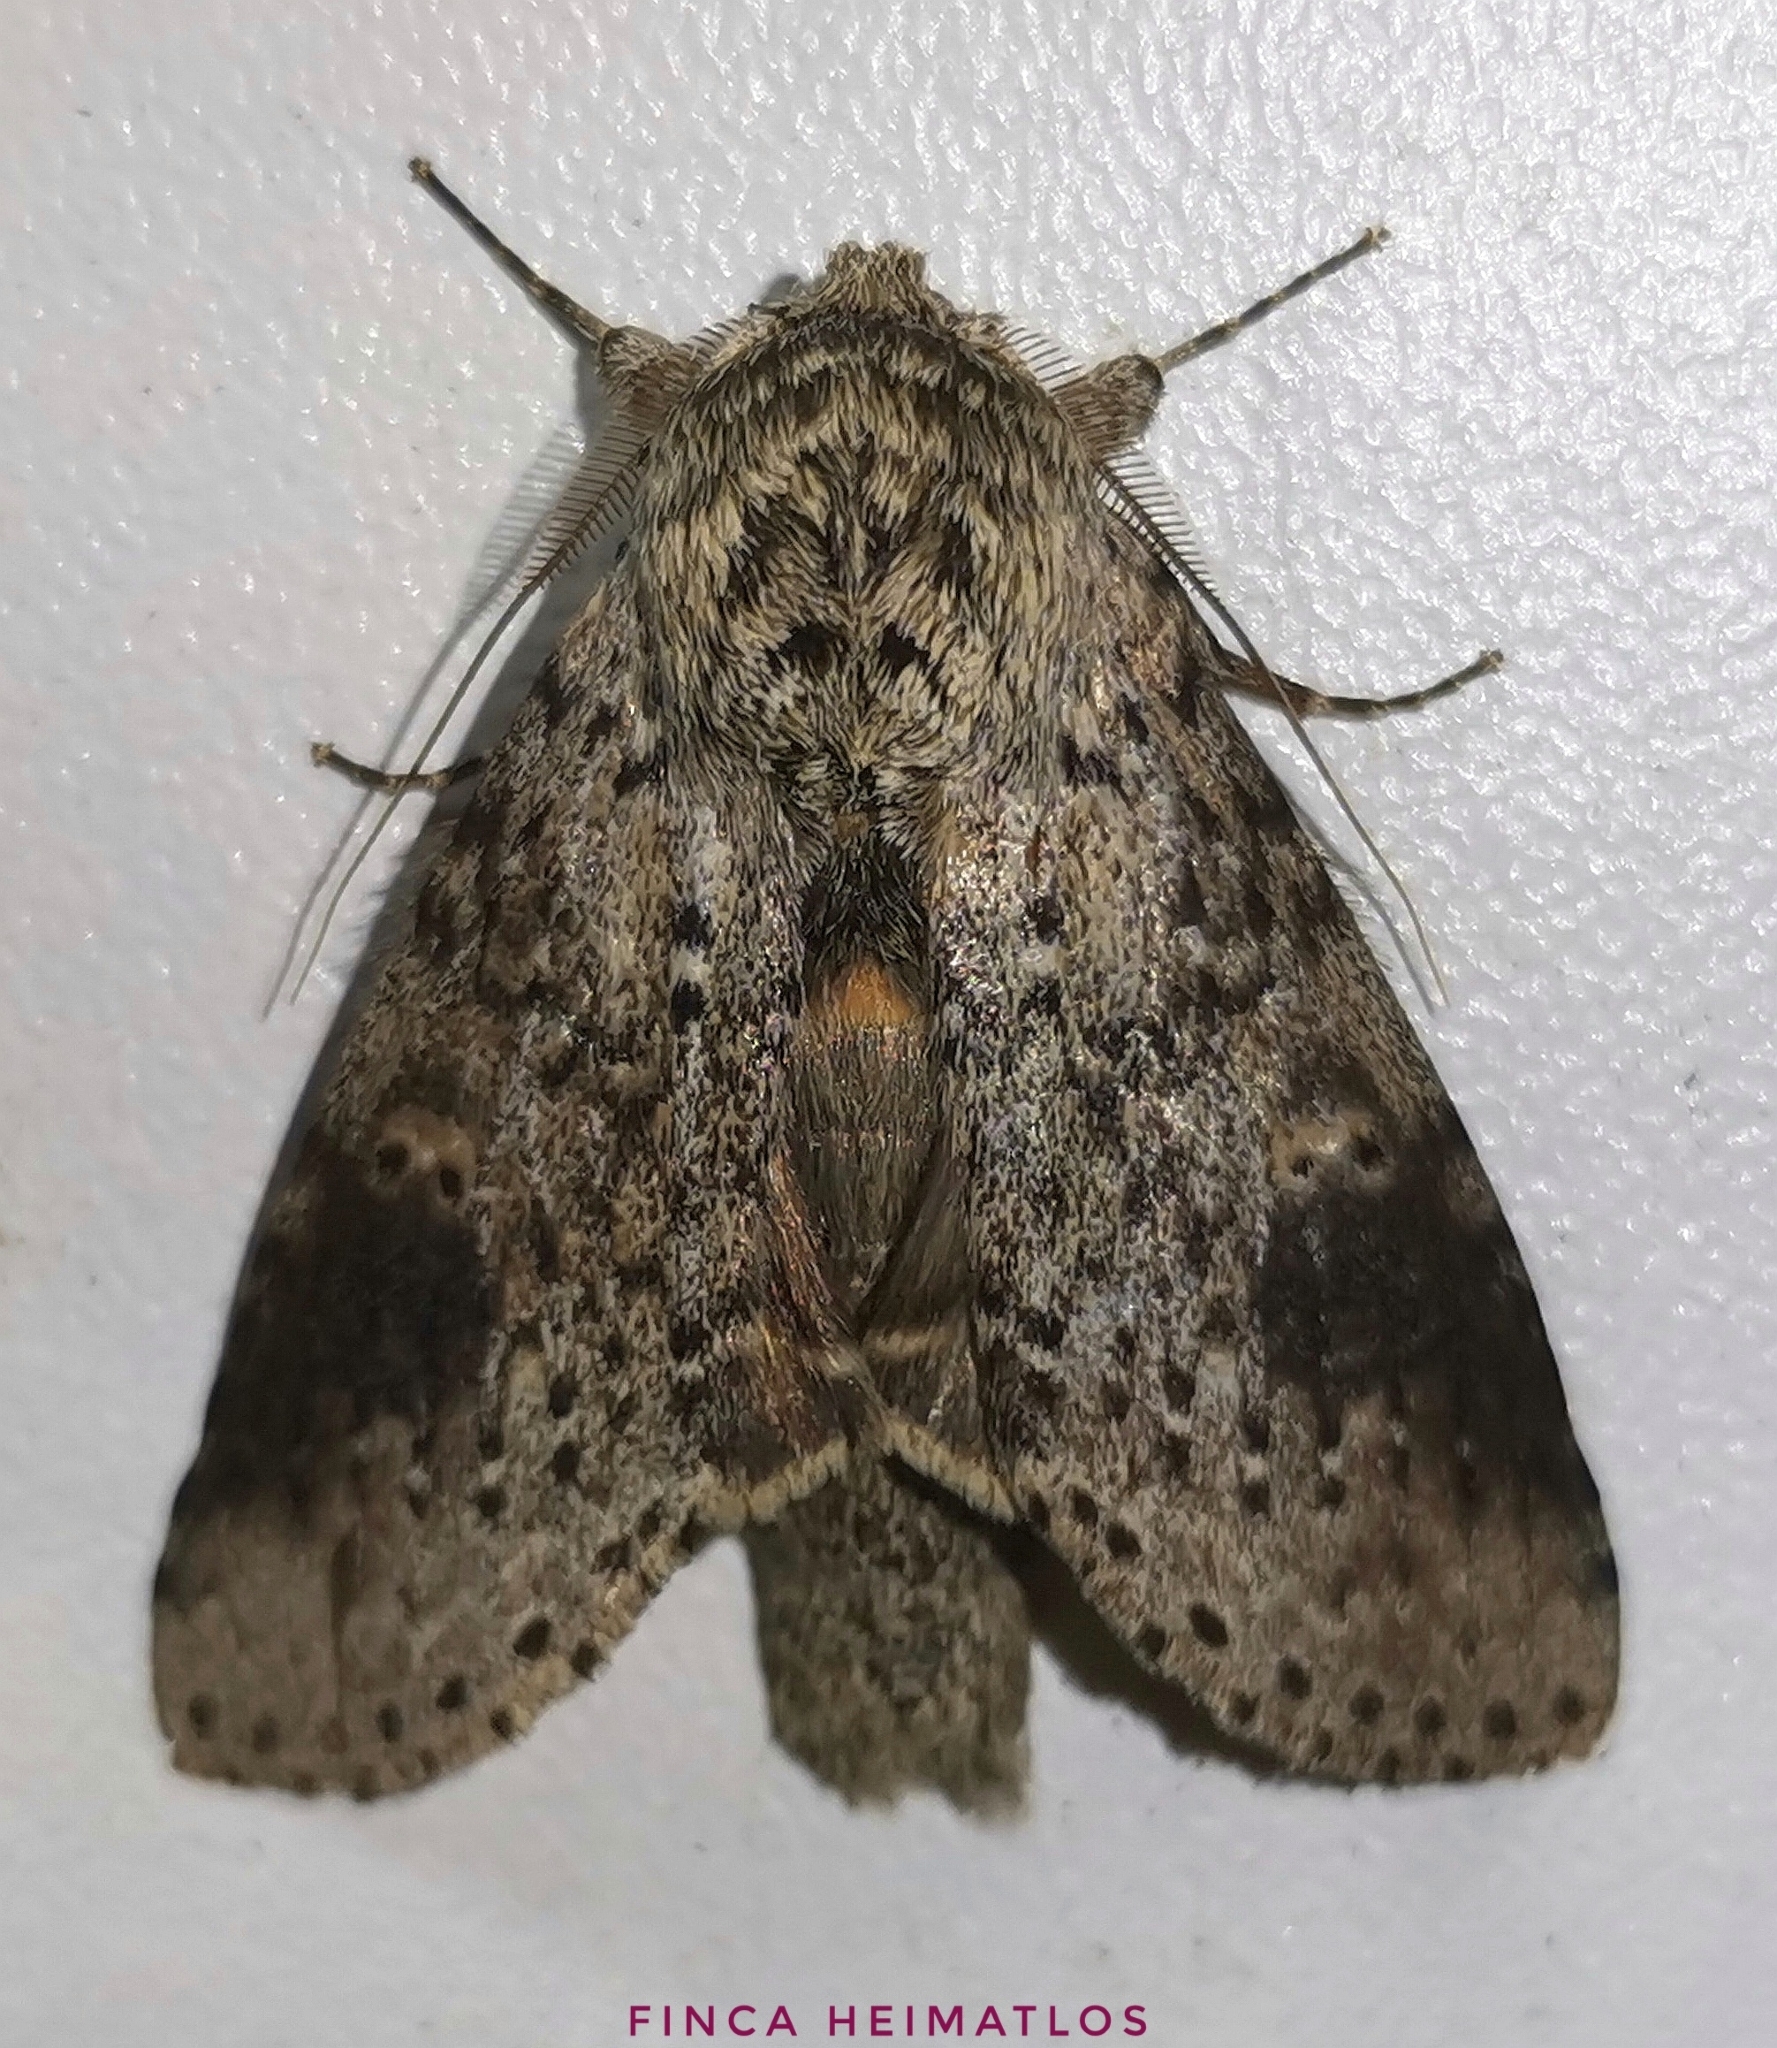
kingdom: Animalia
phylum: Arthropoda
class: Insecta
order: Lepidoptera
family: Notodontidae
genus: Malocampa
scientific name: Malocampa punctata
